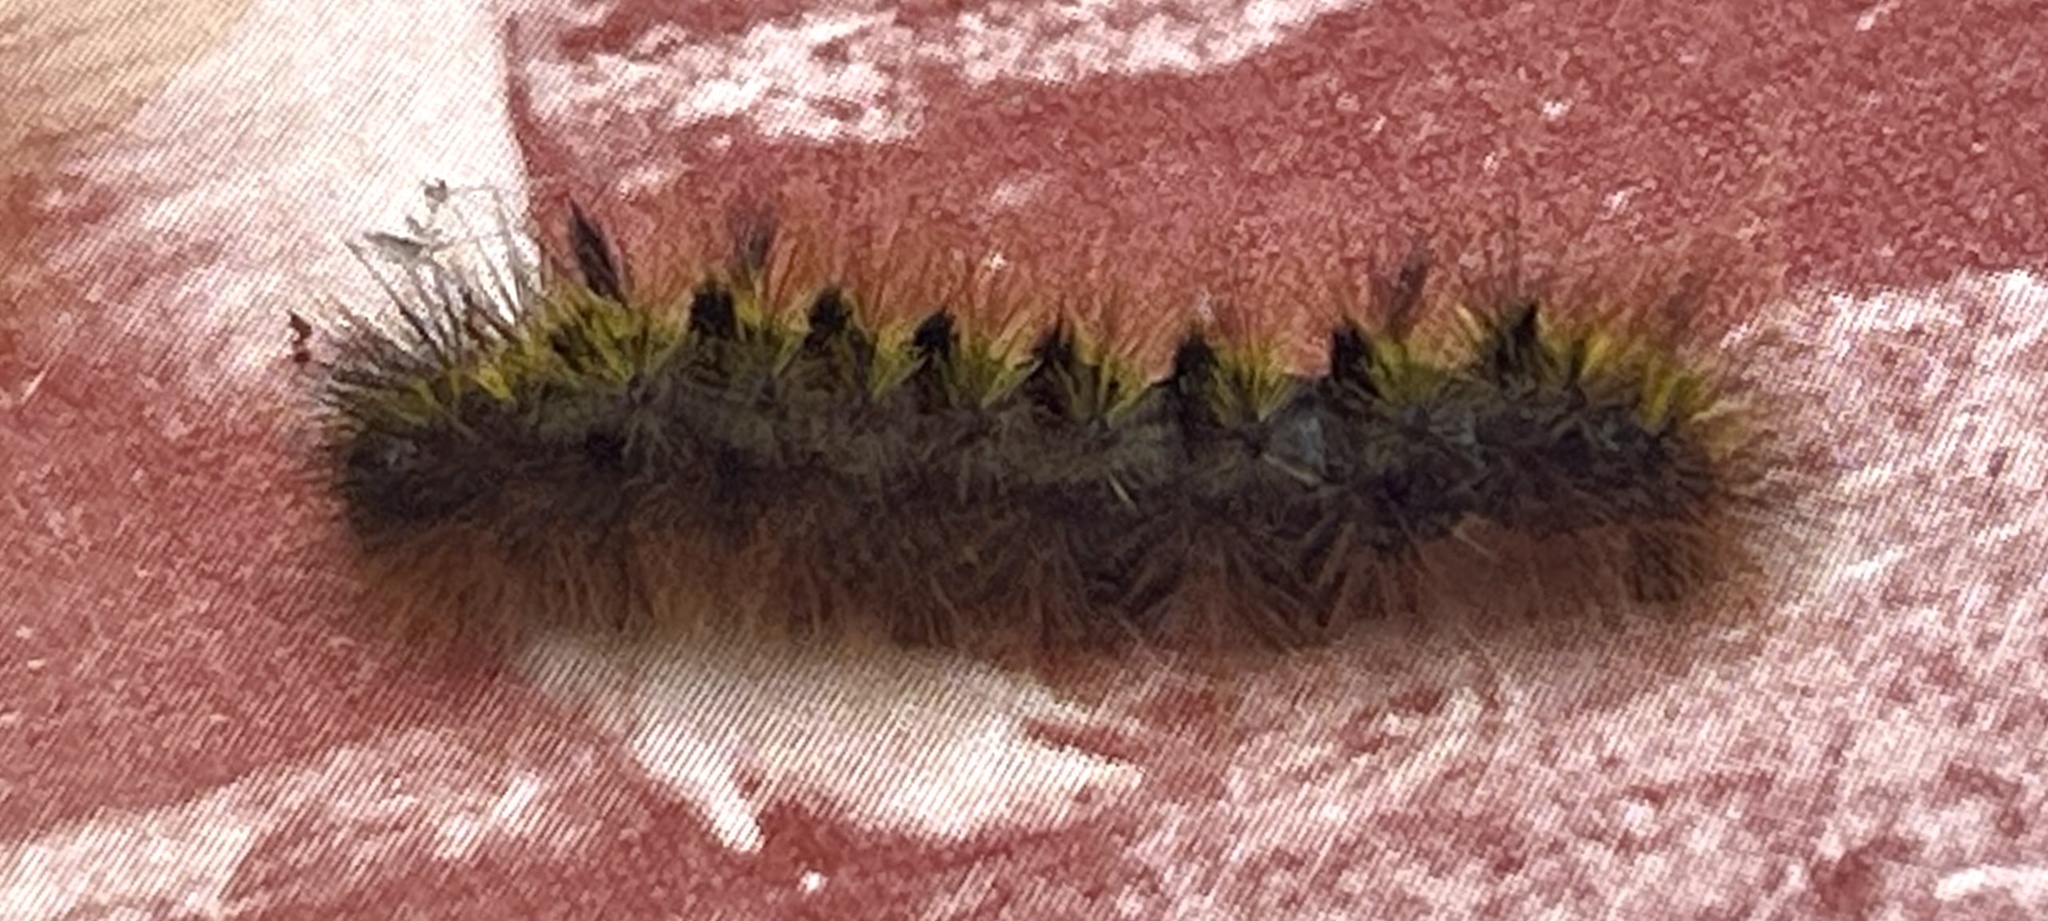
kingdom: Animalia
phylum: Arthropoda
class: Insecta
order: Lepidoptera
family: Erebidae
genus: Lophocampa
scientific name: Lophocampa argentata
